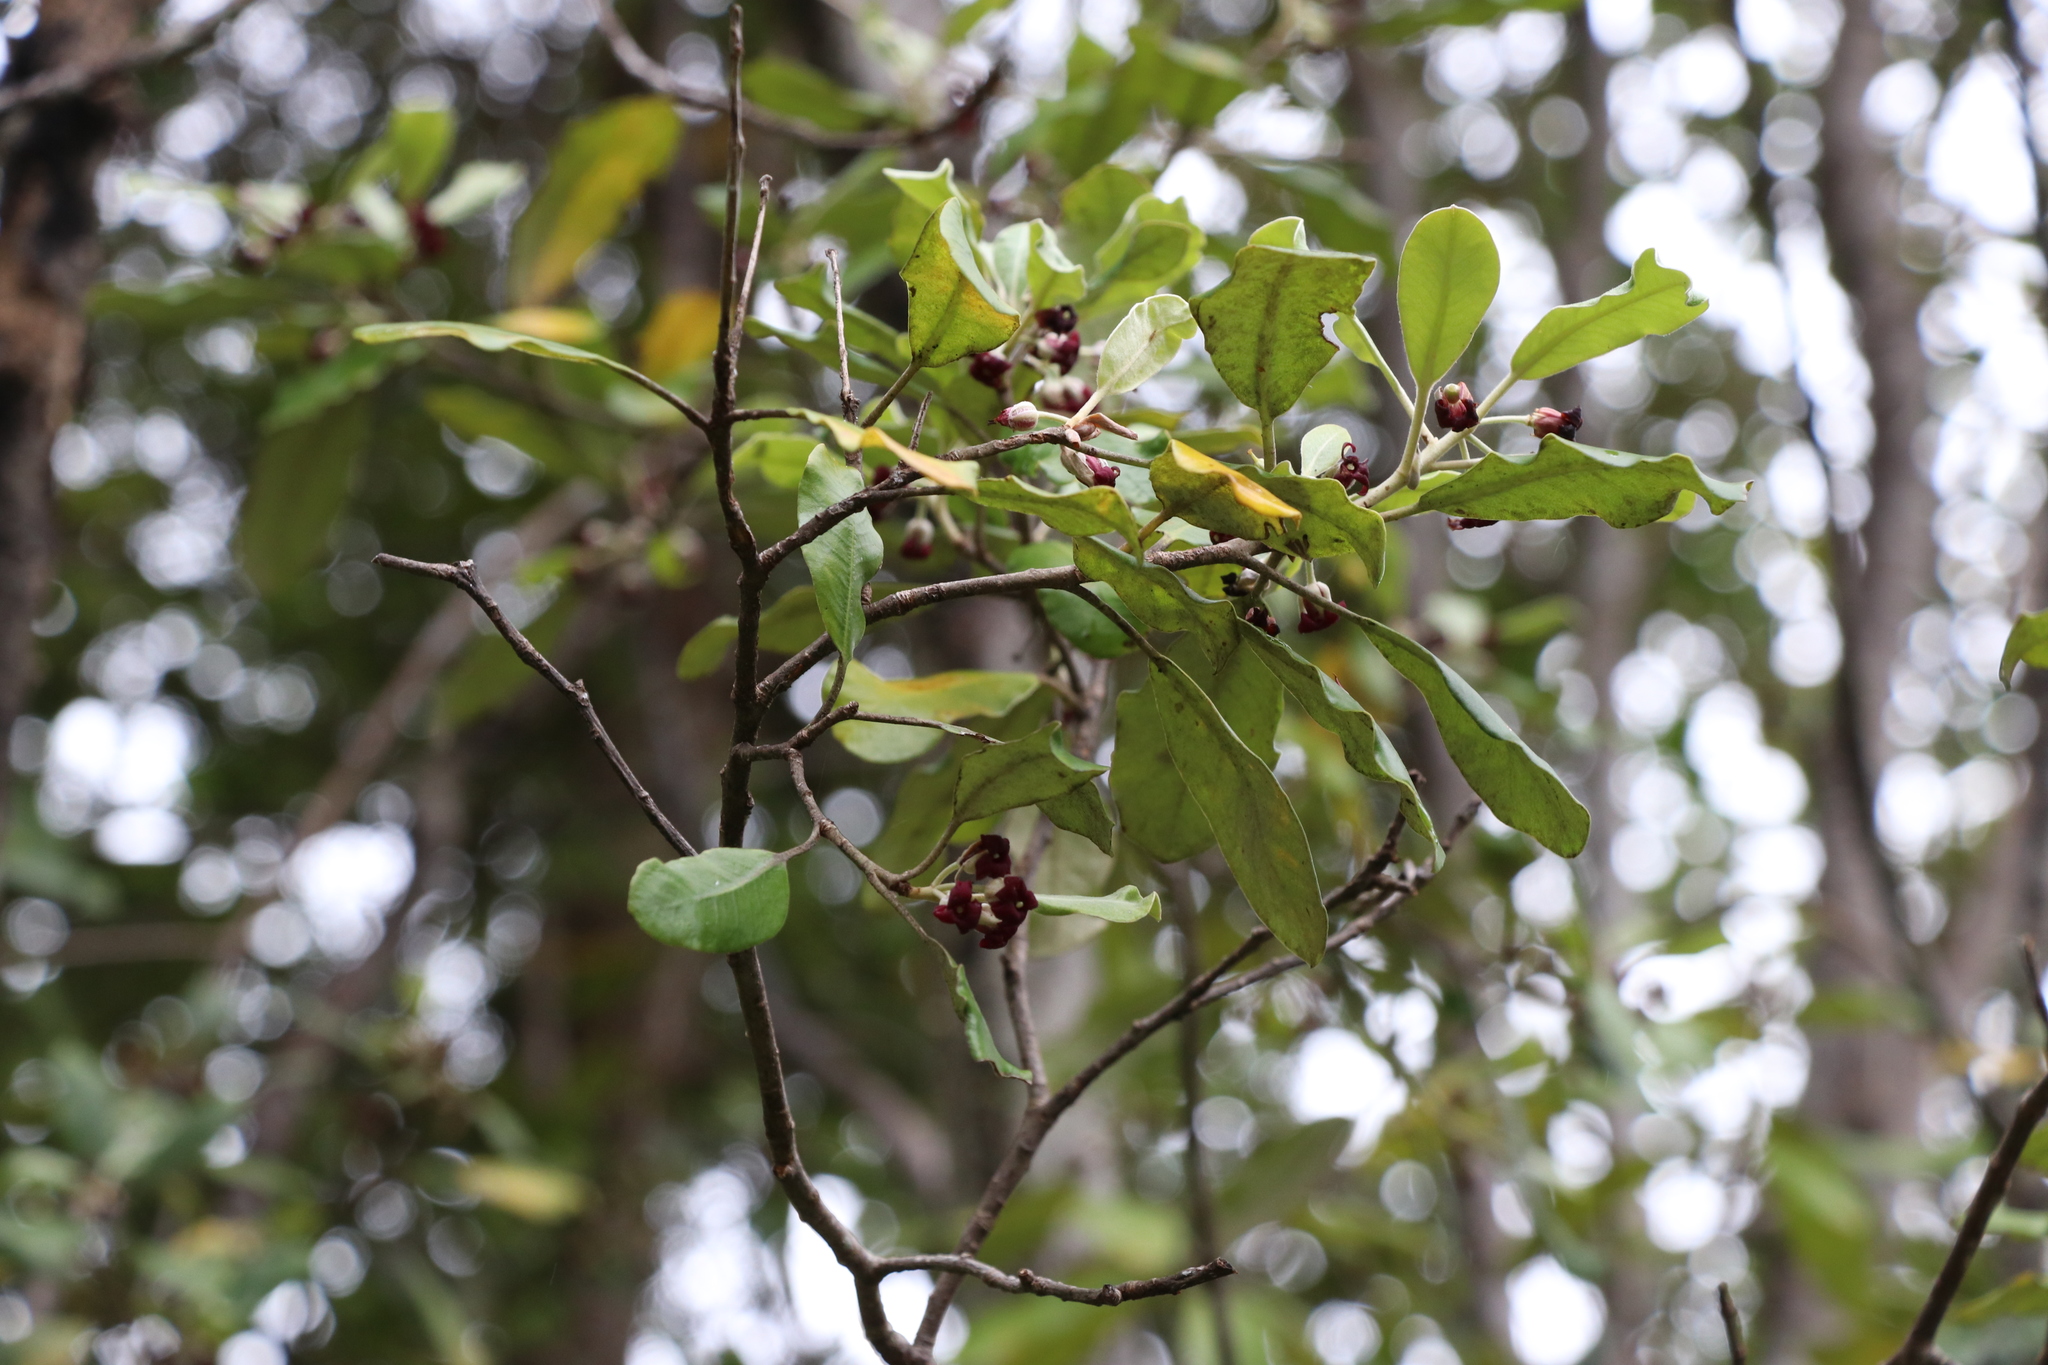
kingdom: Plantae
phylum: Tracheophyta
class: Magnoliopsida
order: Apiales
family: Pittosporaceae
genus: Pittosporum
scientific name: Pittosporum crassifolium
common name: Karo
